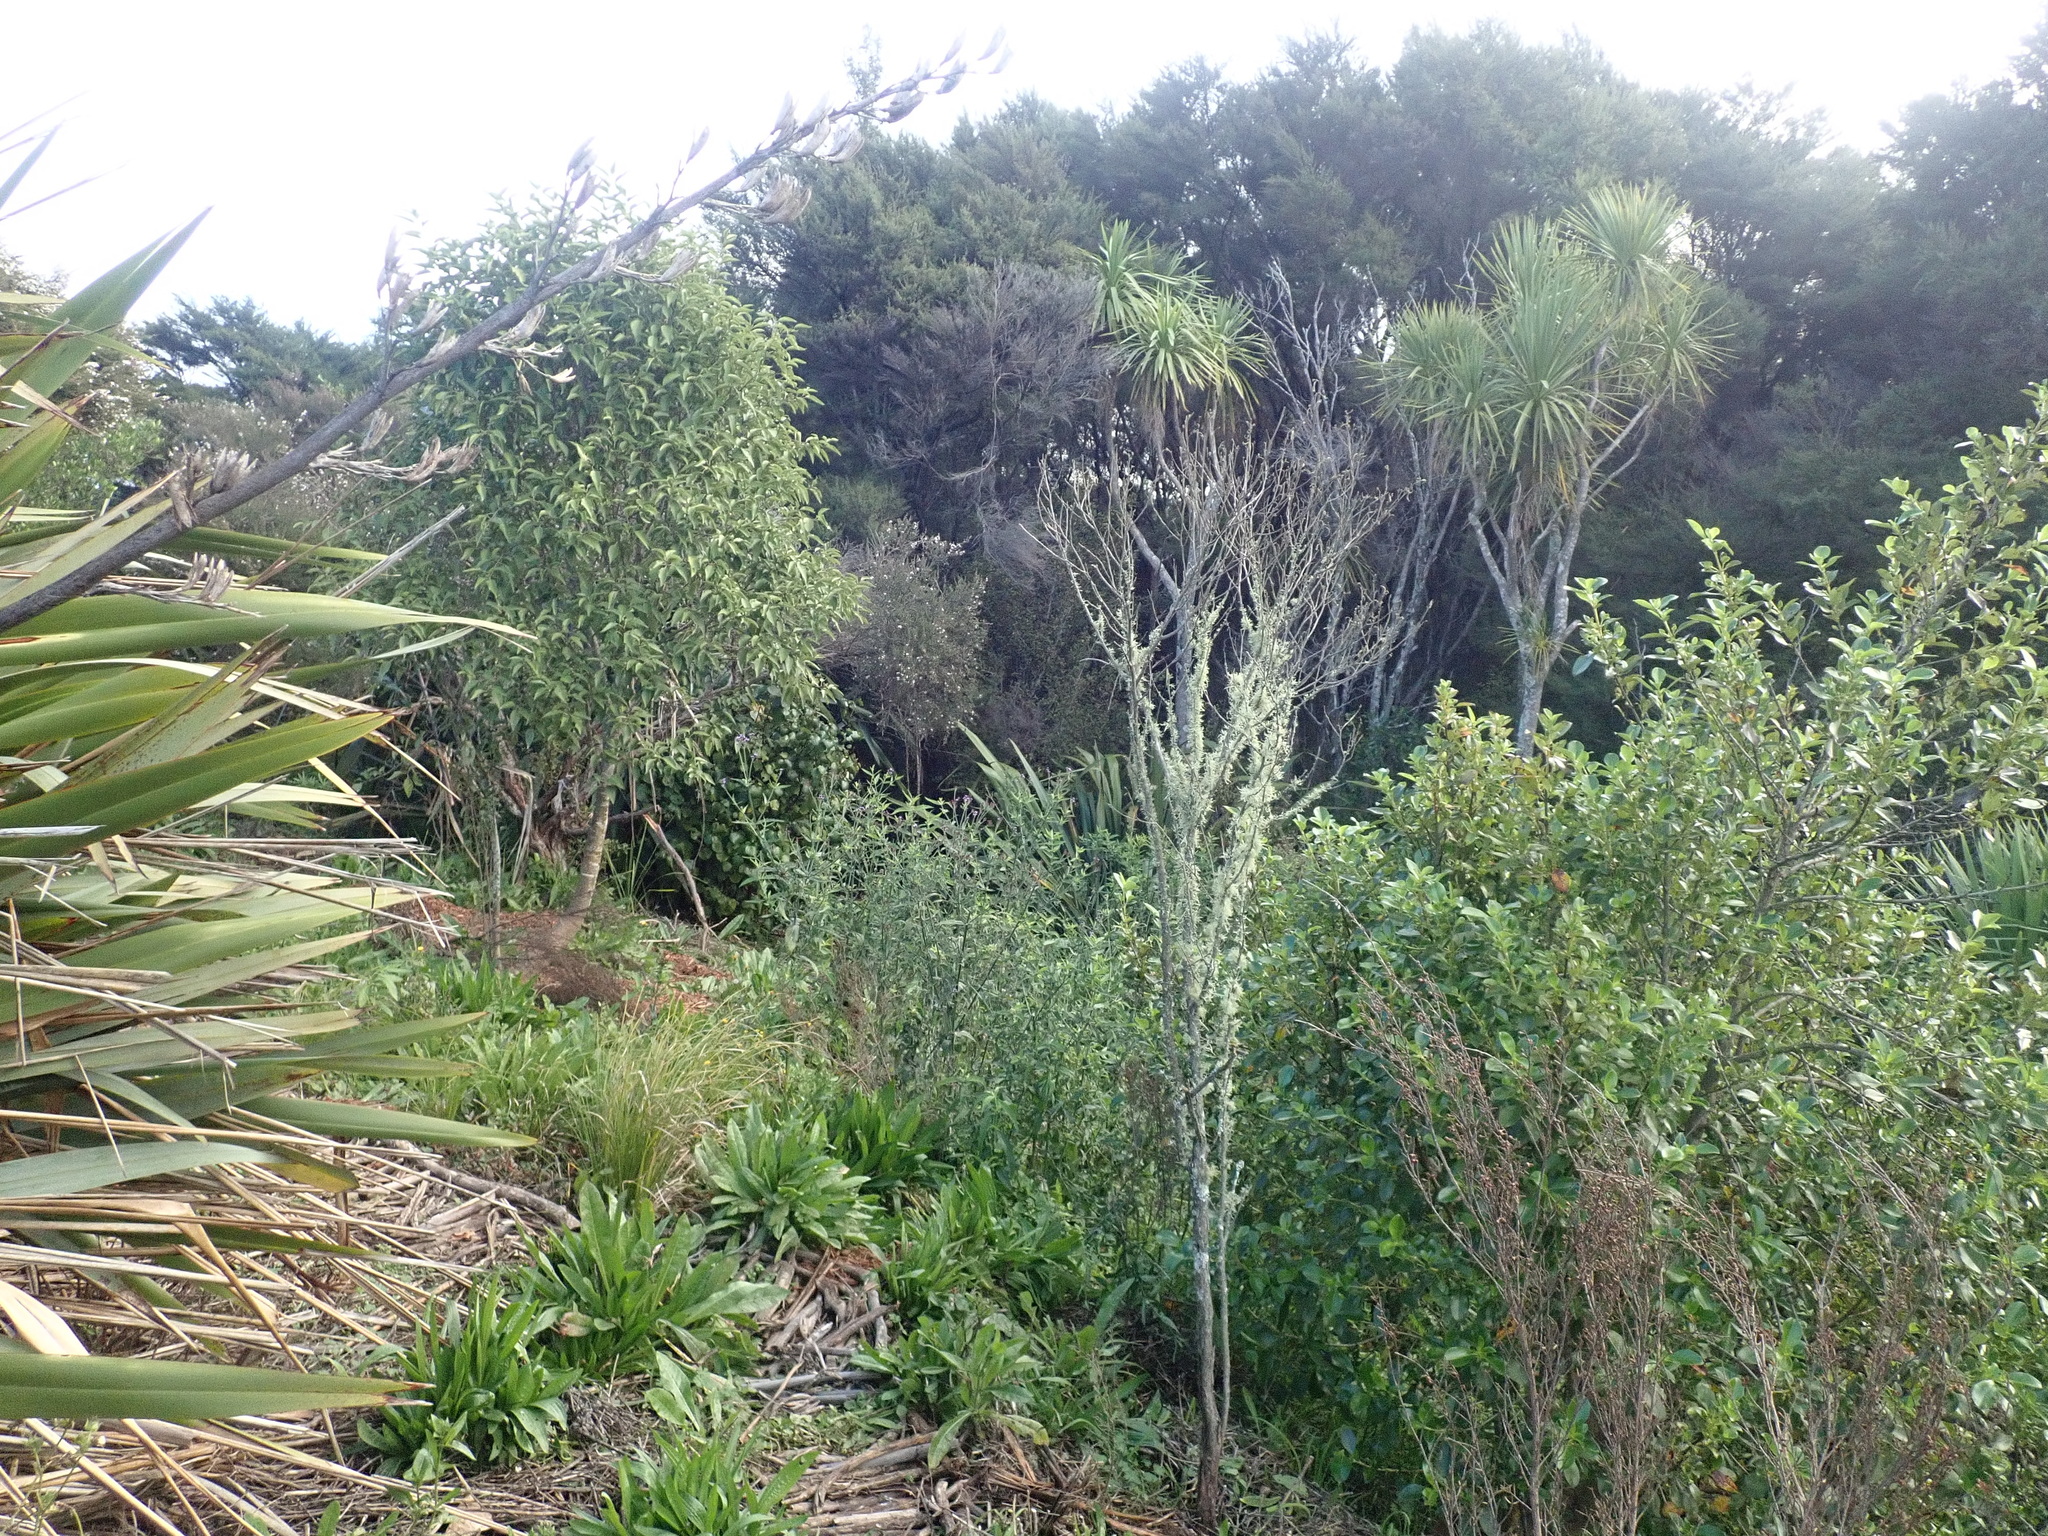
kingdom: Plantae
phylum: Tracheophyta
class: Magnoliopsida
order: Sapindales
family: Sapindaceae
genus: Dodonaea
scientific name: Dodonaea viscosa
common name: Hopbush
